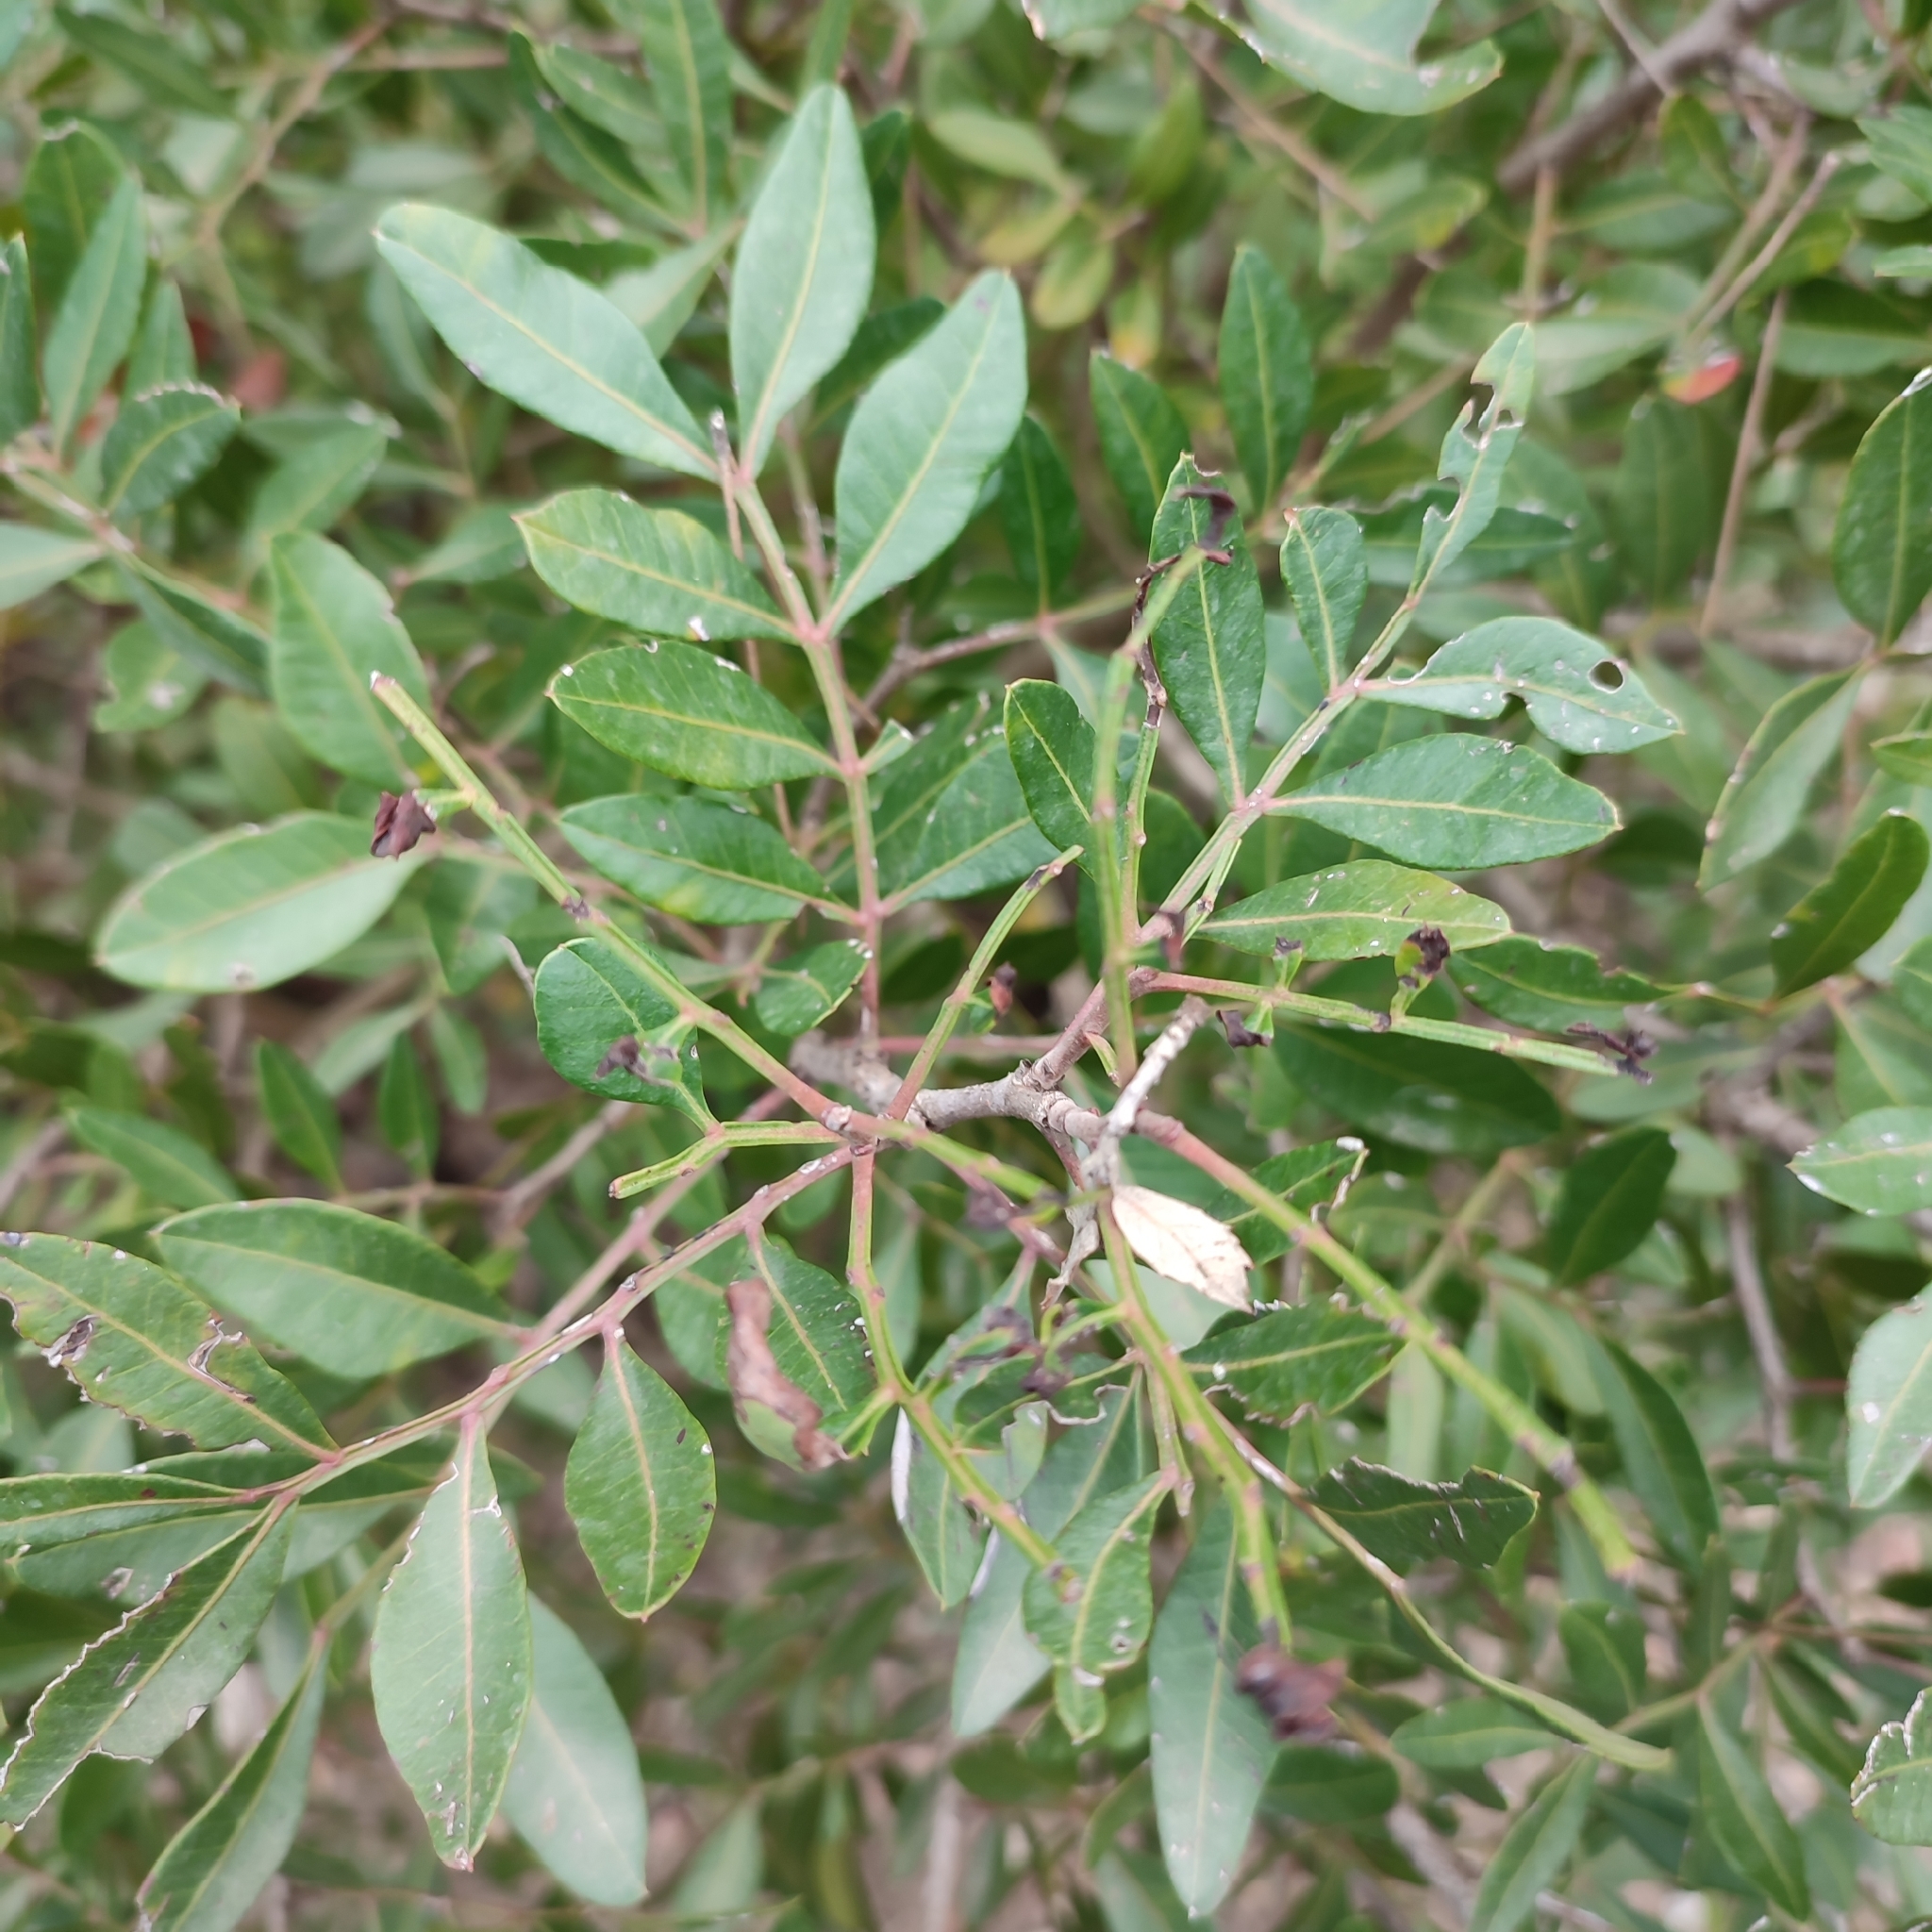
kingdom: Plantae
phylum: Tracheophyta
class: Magnoliopsida
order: Sapindales
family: Anacardiaceae
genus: Pistacia
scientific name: Pistacia lentiscus
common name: Lentisk
